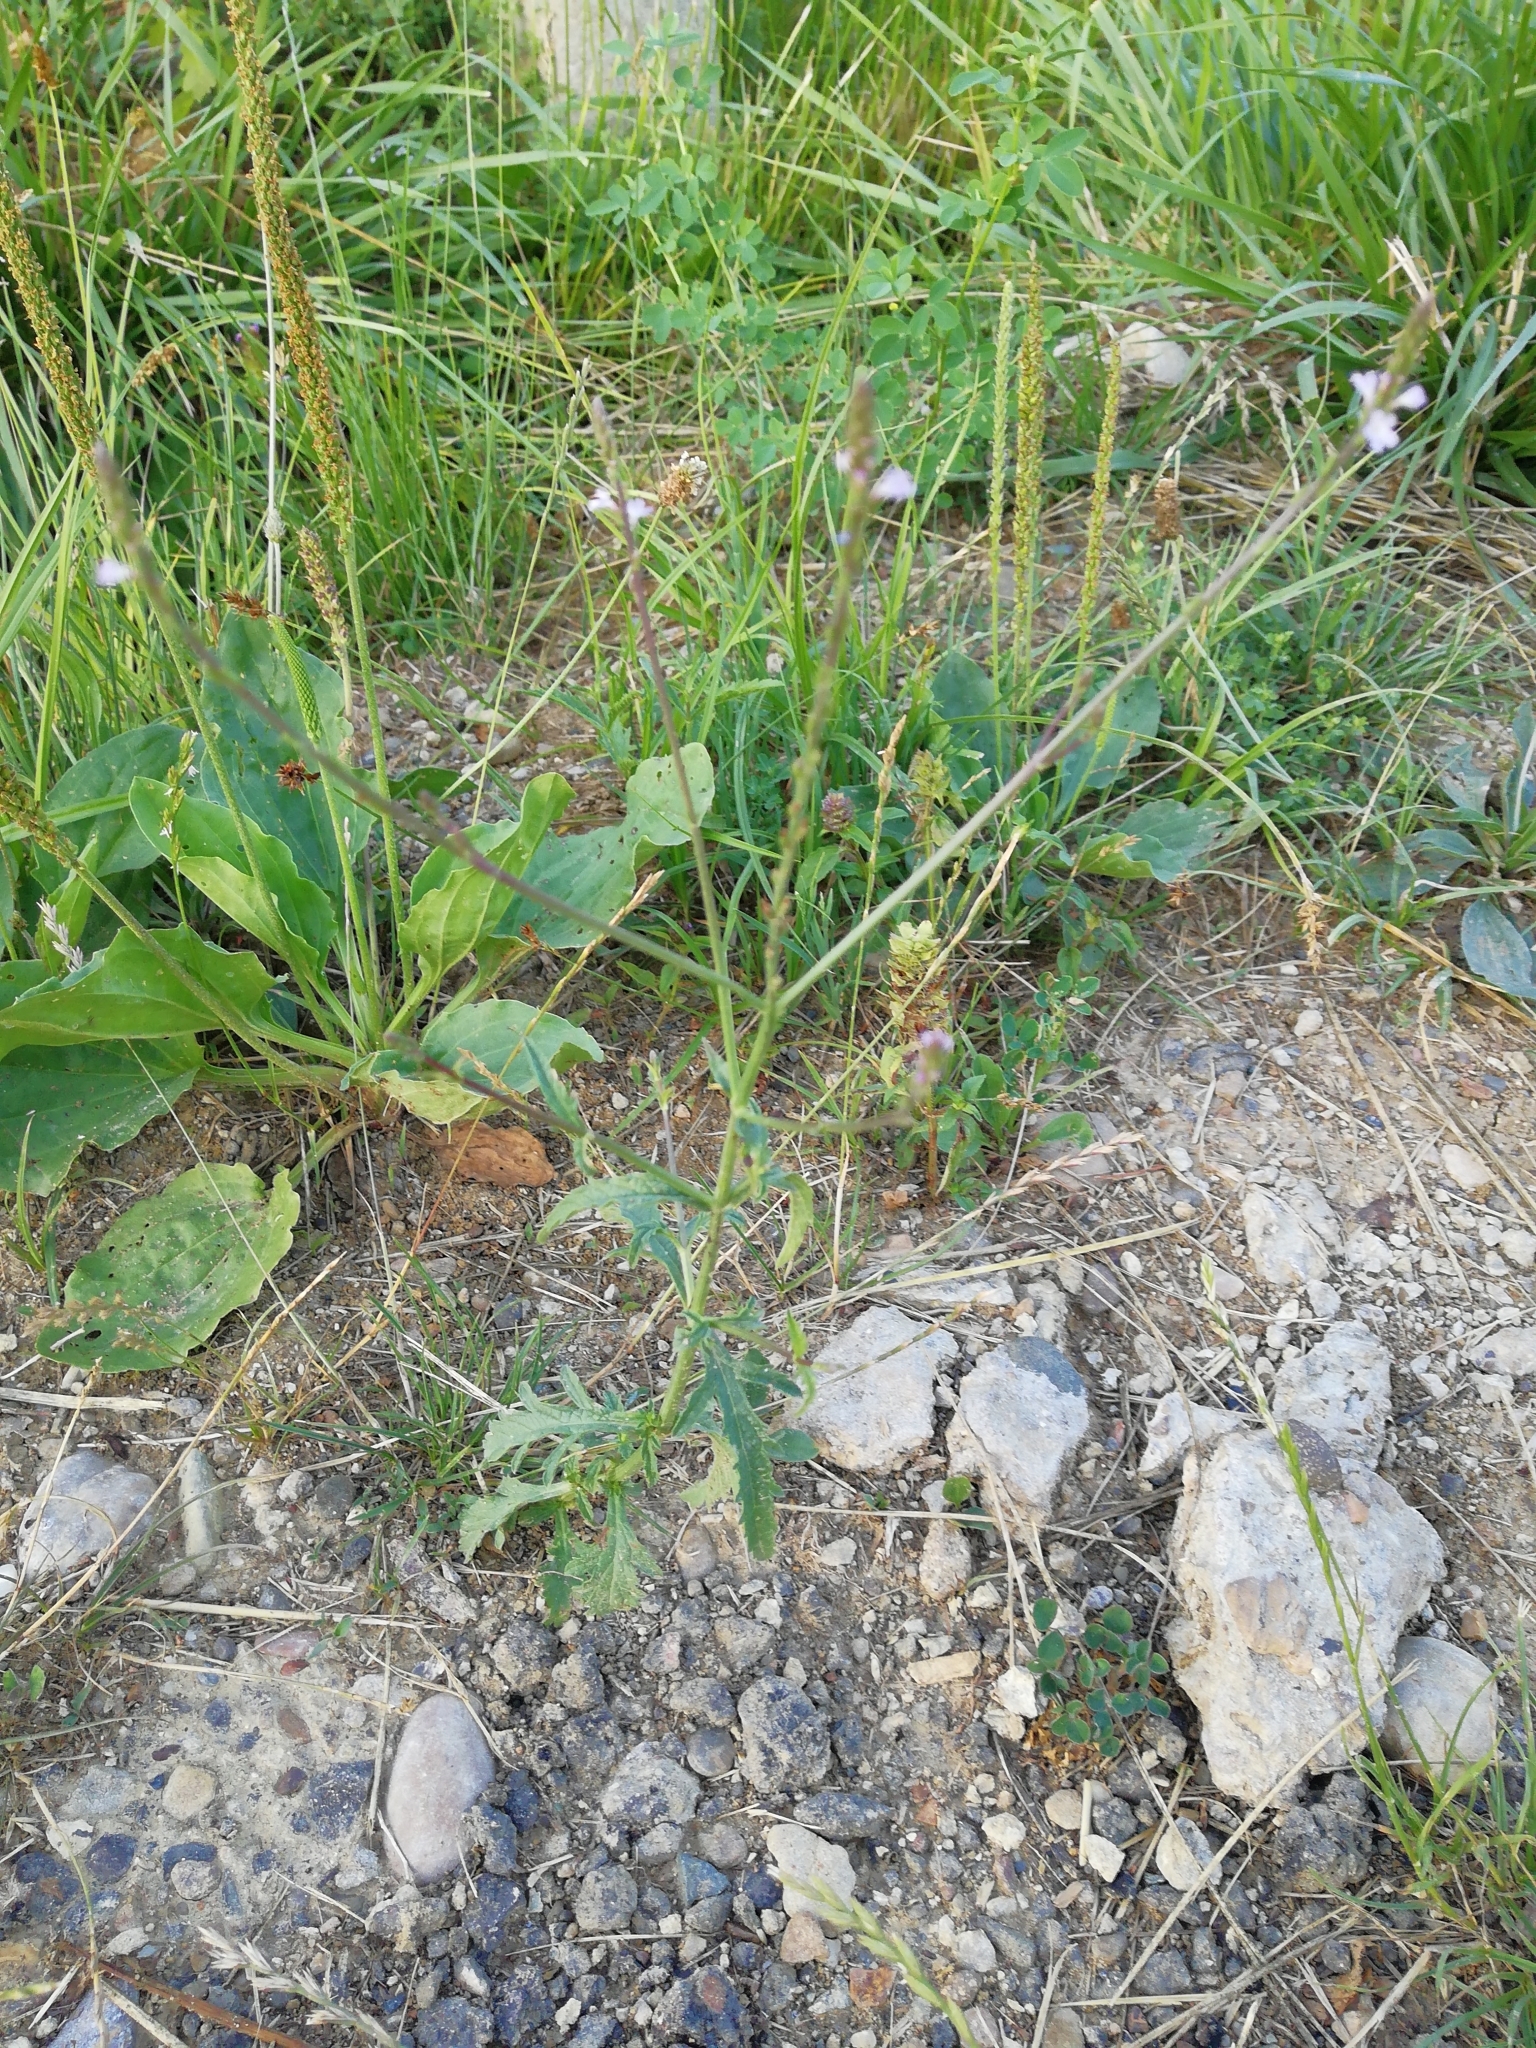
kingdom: Plantae
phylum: Tracheophyta
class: Magnoliopsida
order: Lamiales
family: Verbenaceae
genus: Verbena
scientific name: Verbena officinalis
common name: Vervain
